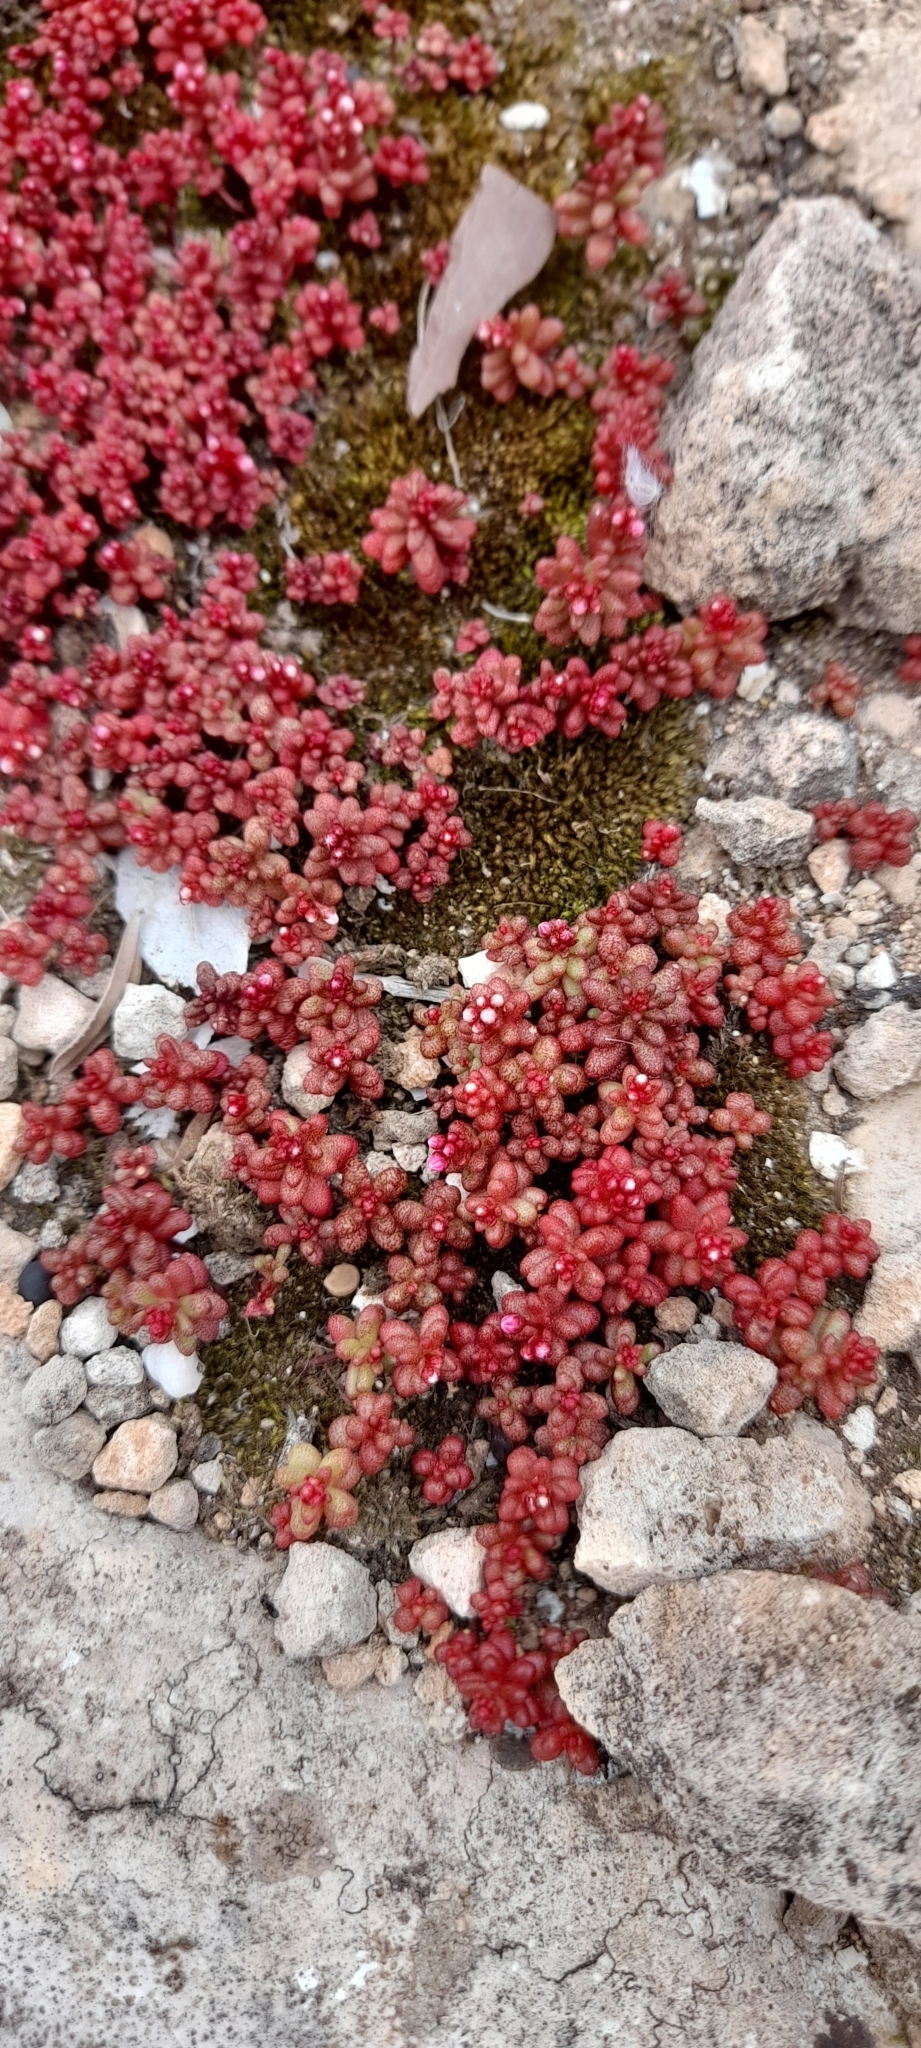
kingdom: Plantae
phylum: Tracheophyta
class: Magnoliopsida
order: Saxifragales
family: Crassulaceae
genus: Sedum
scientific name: Sedum caeruleum
